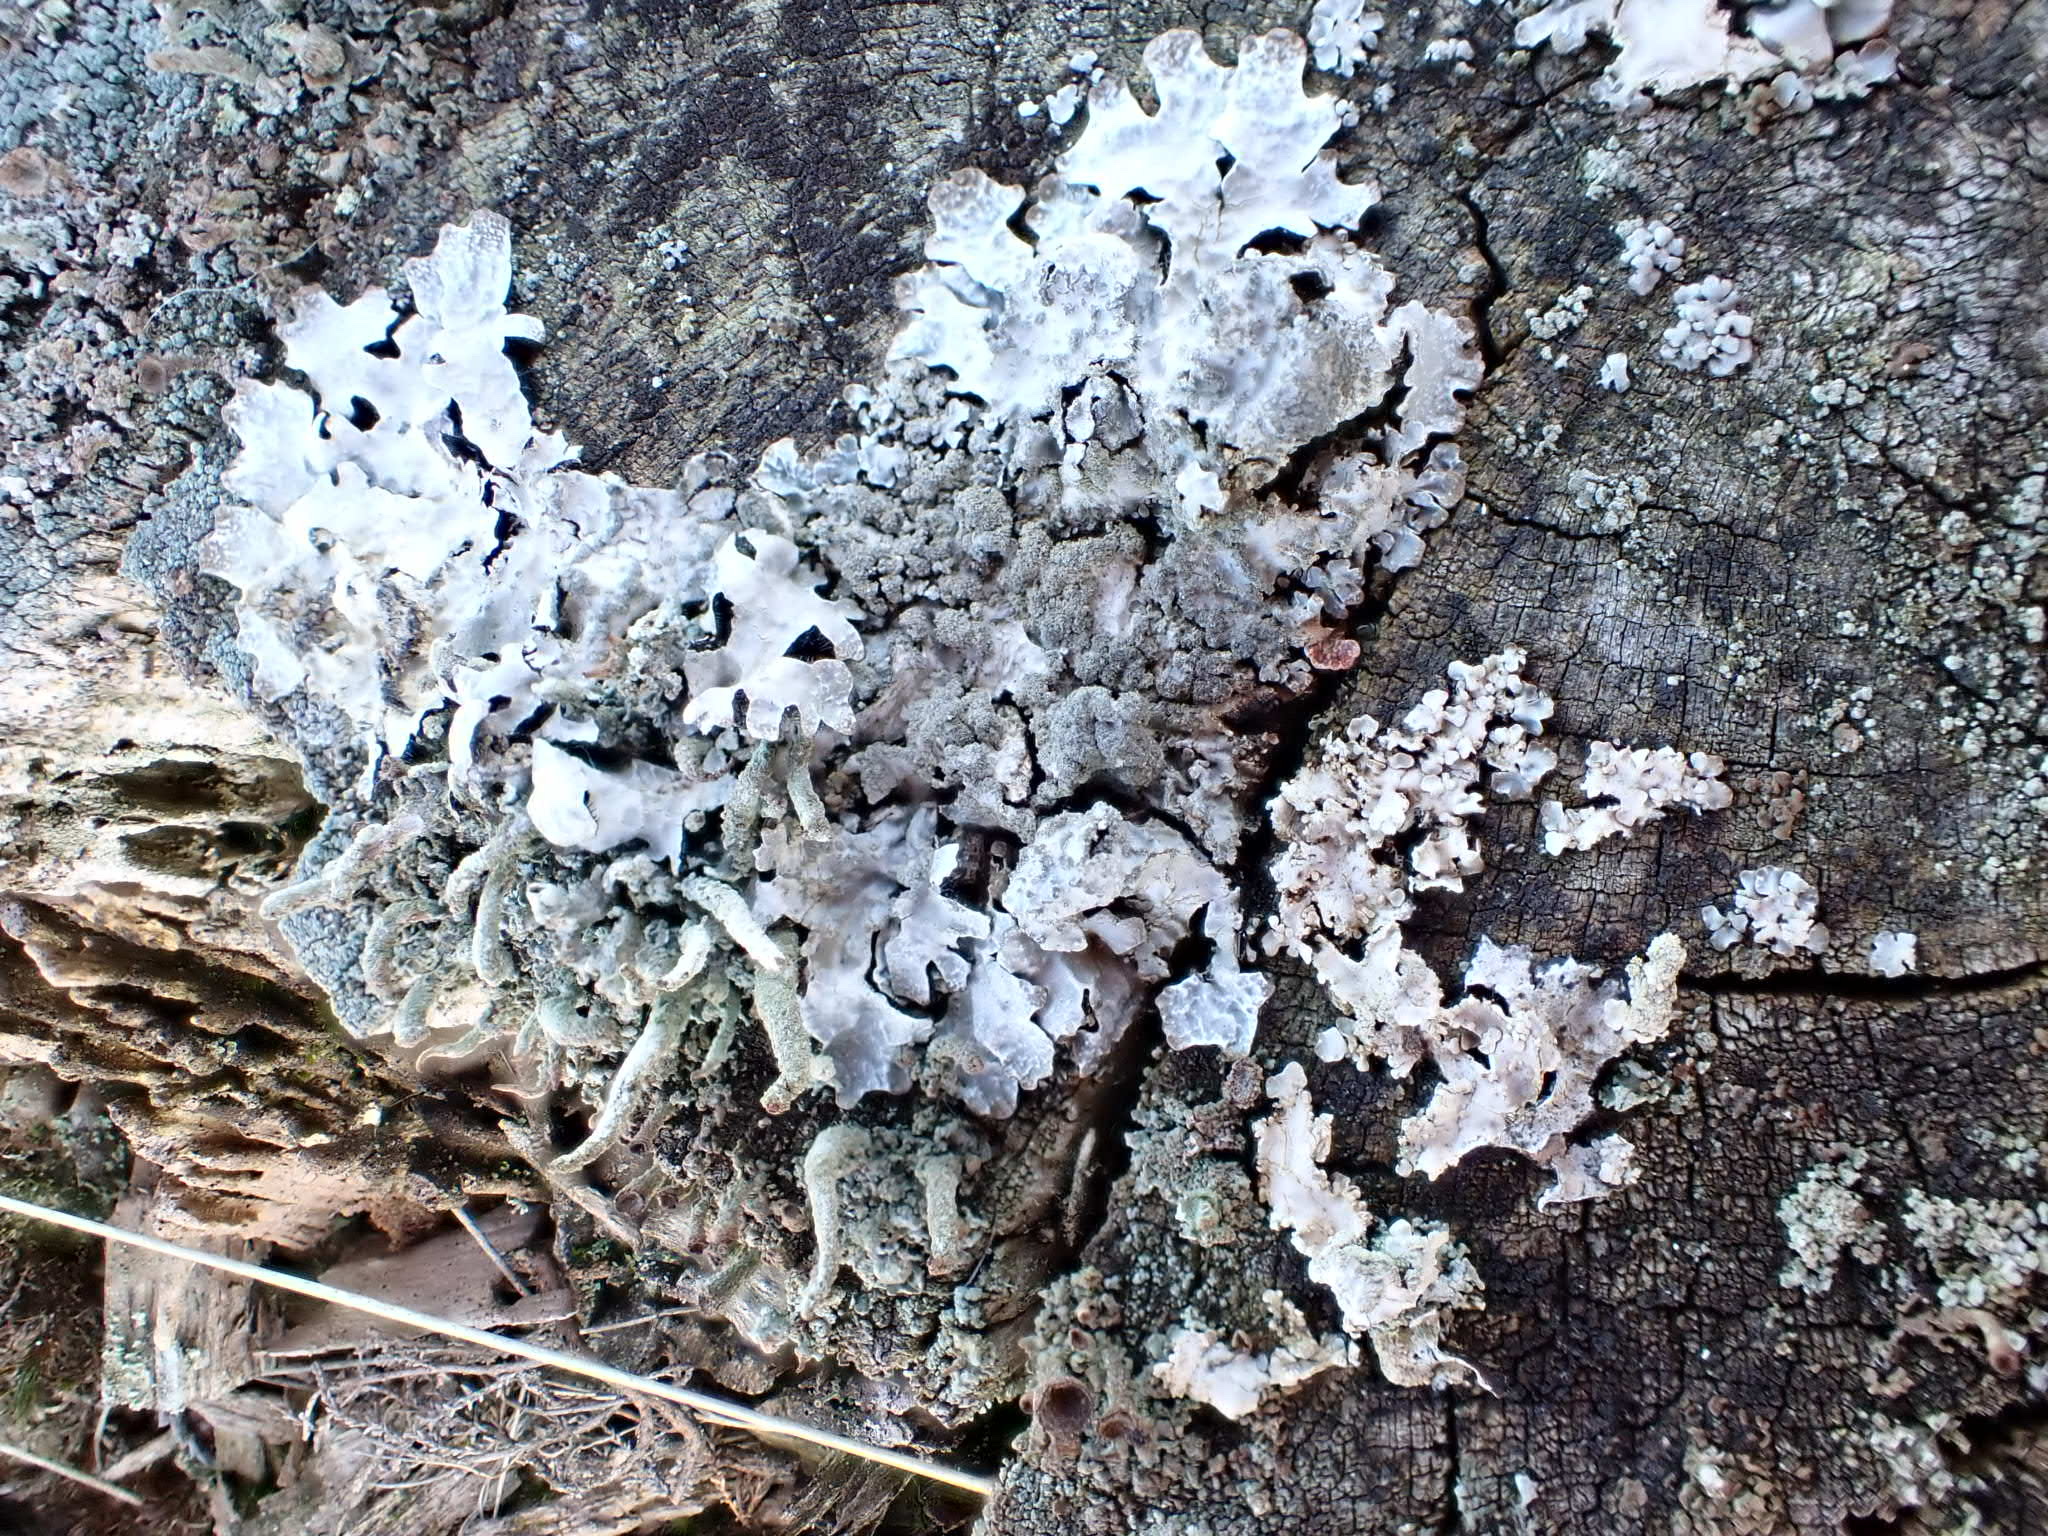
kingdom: Fungi
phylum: Ascomycota
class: Lecanoromycetes
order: Lecanorales
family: Parmeliaceae
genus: Parmelia
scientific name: Parmelia sulcata
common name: Netted shield lichen
